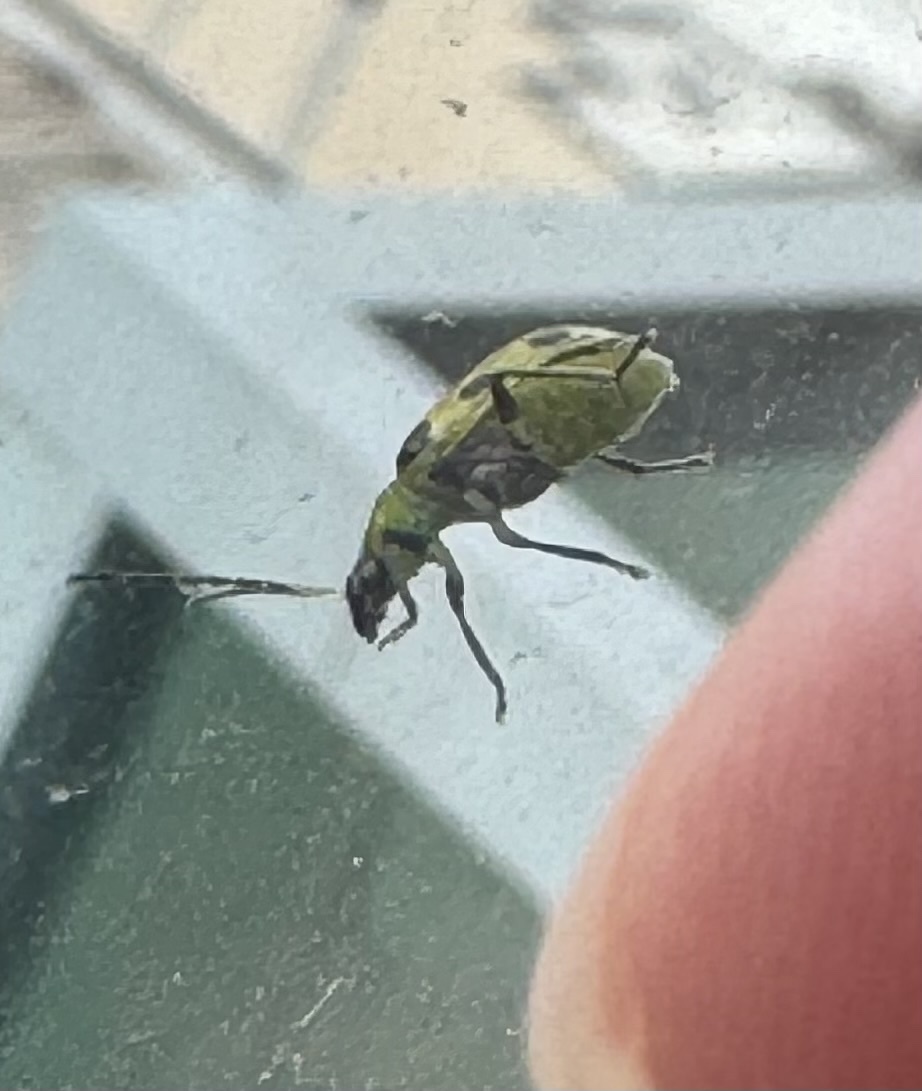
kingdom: Animalia
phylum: Arthropoda
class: Insecta
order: Coleoptera
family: Chrysomelidae
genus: Diabrotica
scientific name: Diabrotica undecimpunctata
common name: Spotted cucumber beetle
